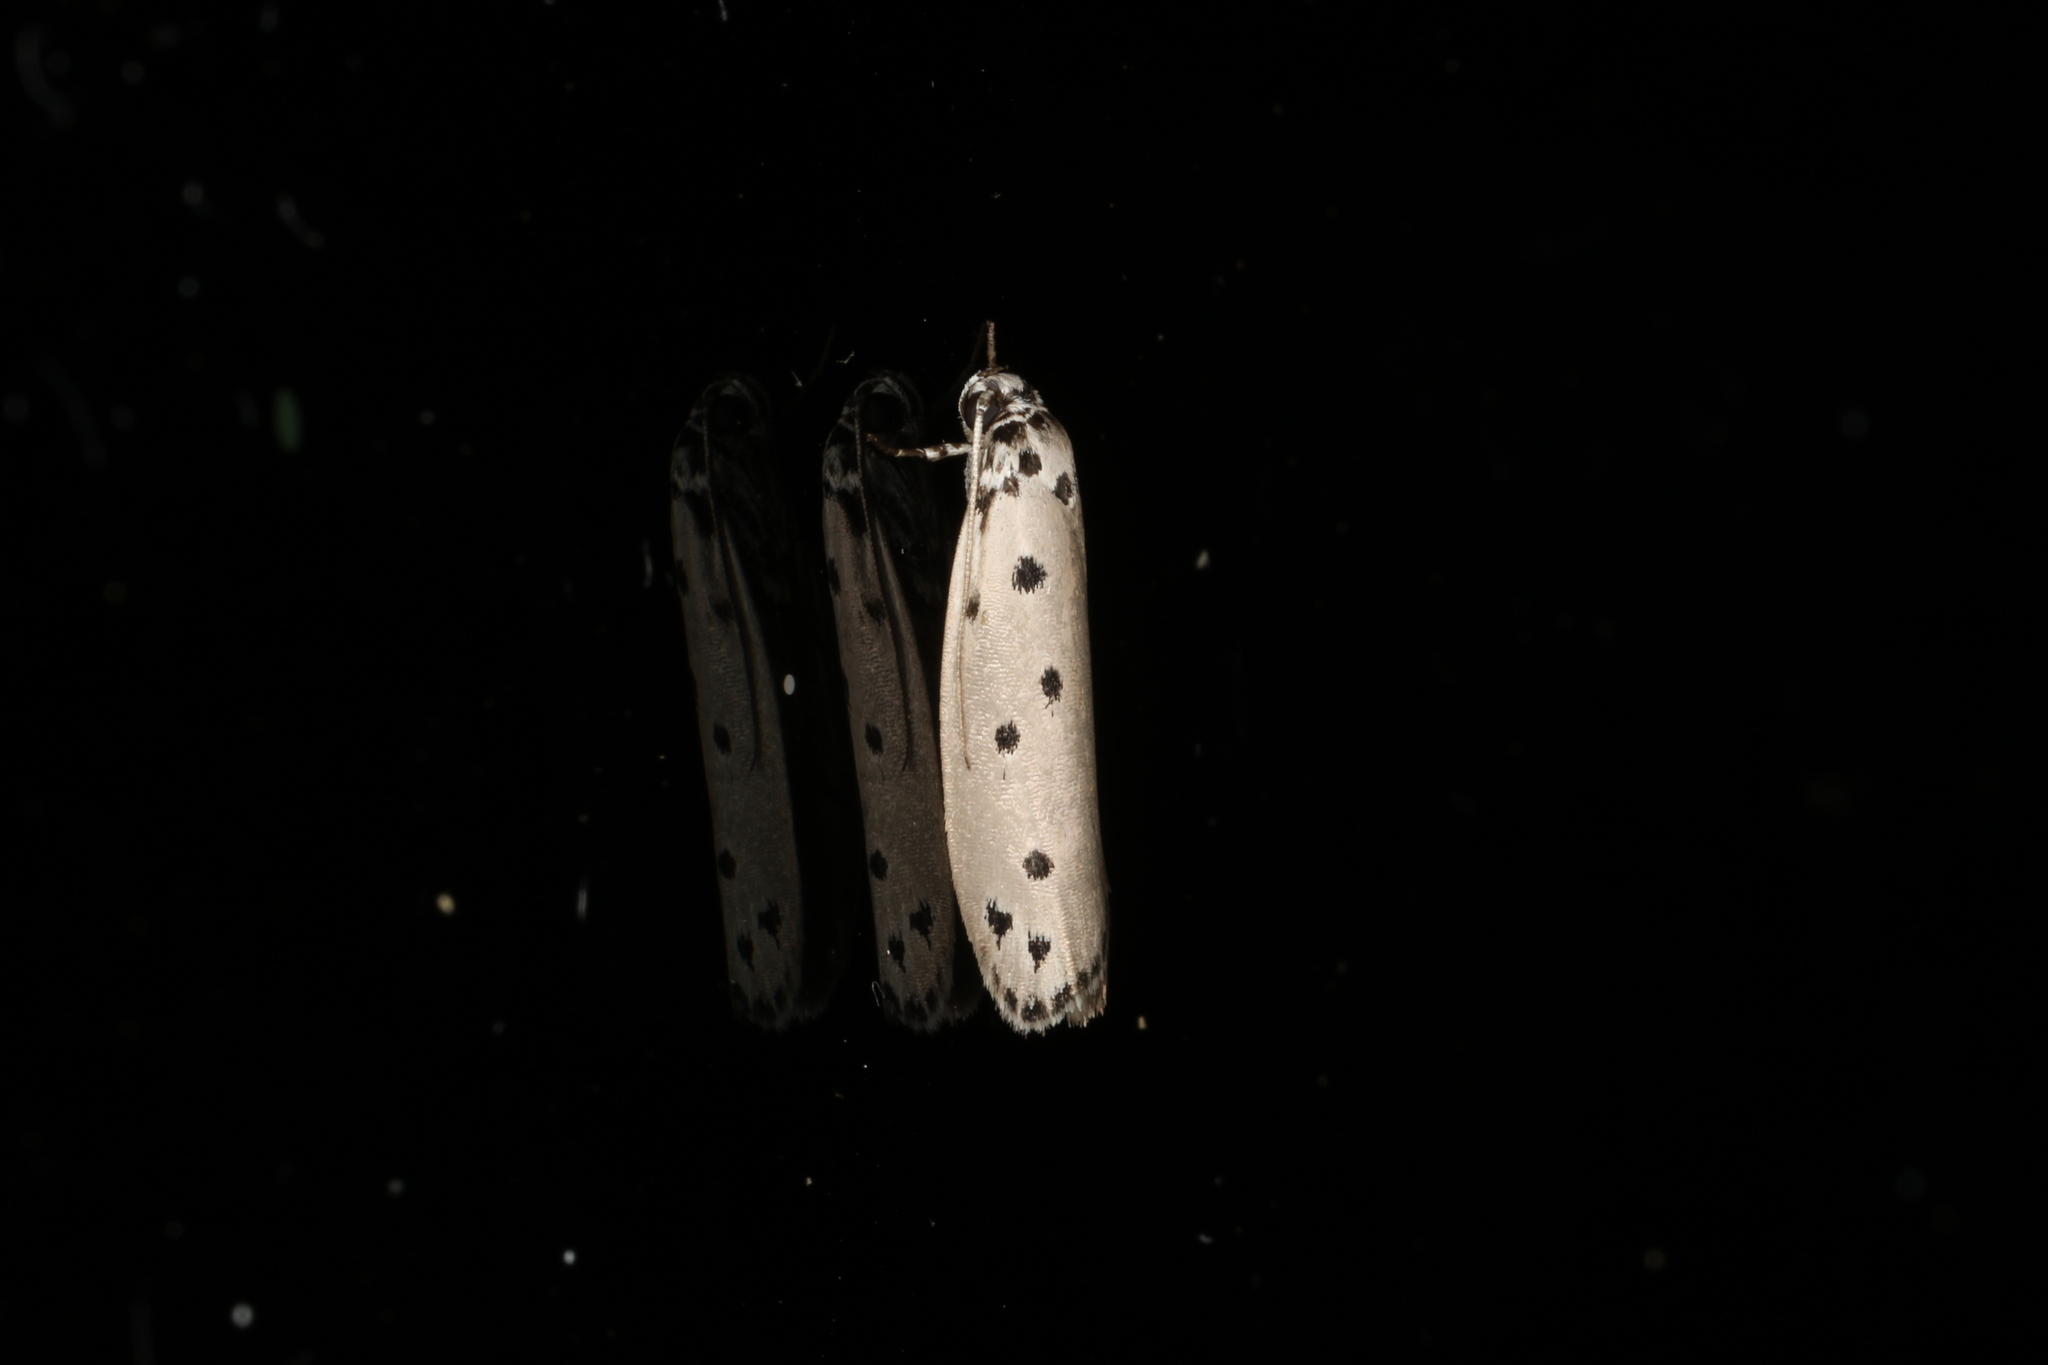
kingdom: Animalia
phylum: Arthropoda
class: Insecta
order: Lepidoptera
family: Ethmiidae
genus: Ethmia
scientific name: Ethmia heptasema
